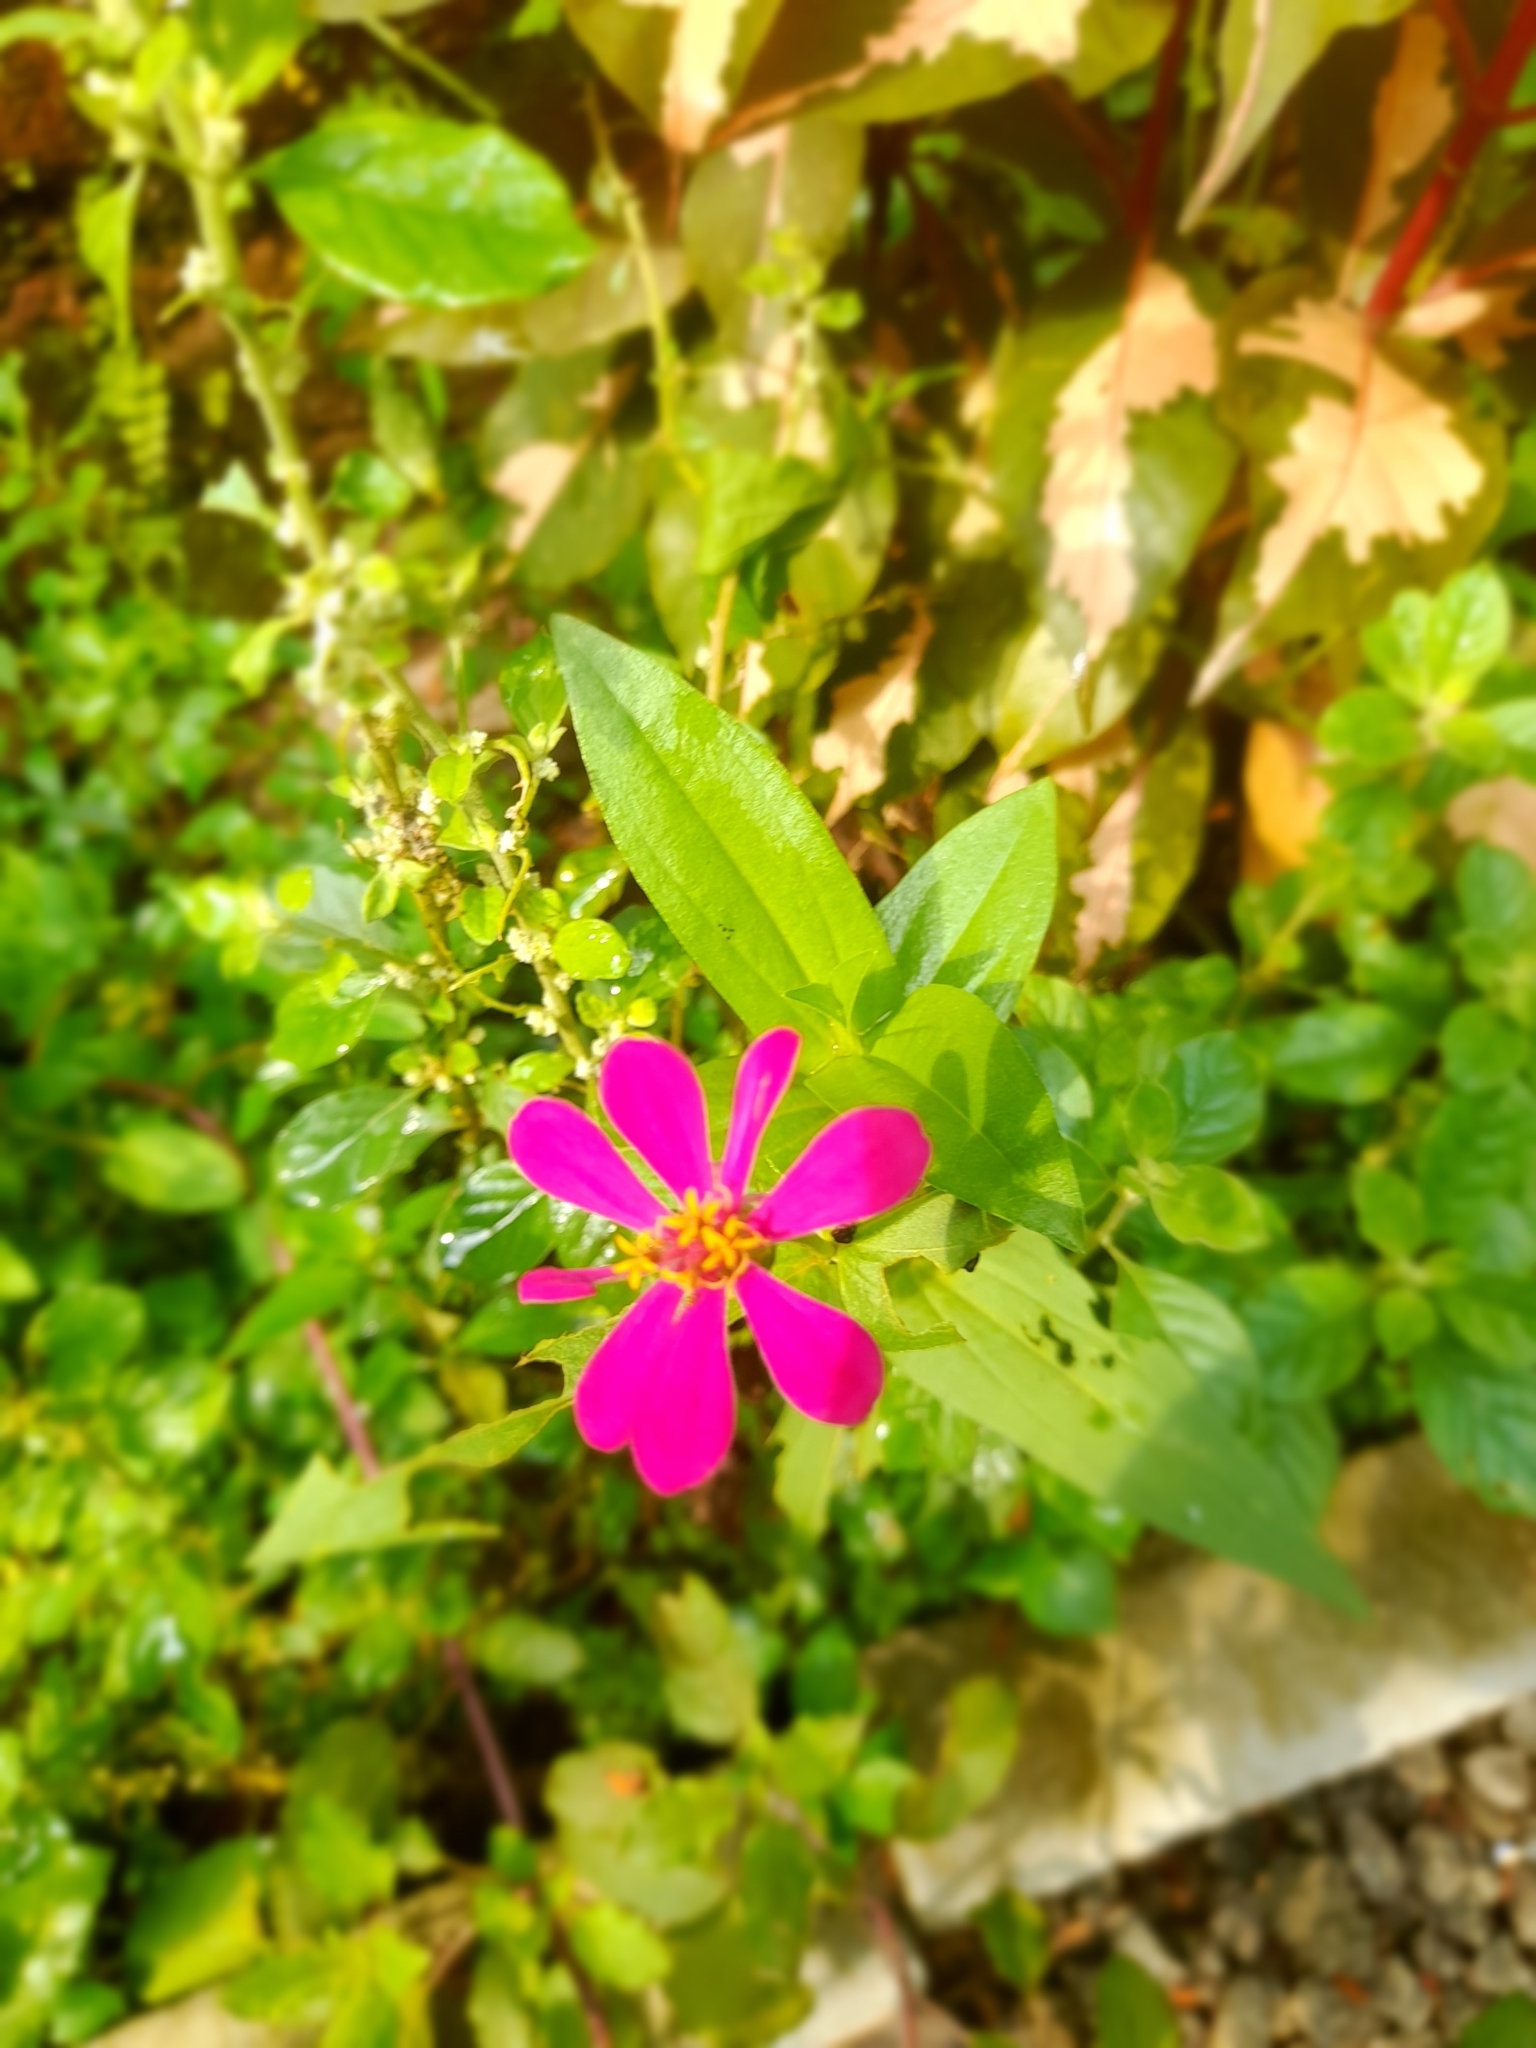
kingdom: Plantae
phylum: Tracheophyta
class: Magnoliopsida
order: Asterales
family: Asteraceae
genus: Zinnia
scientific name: Zinnia elegans
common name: Youth-and-age
